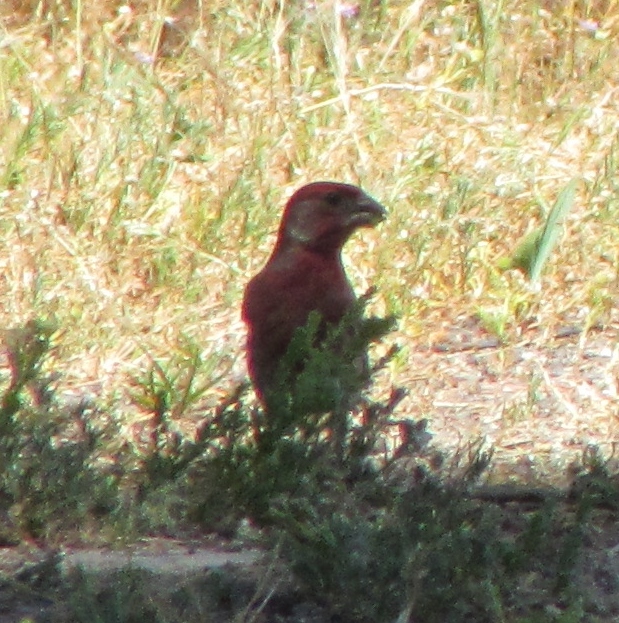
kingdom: Animalia
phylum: Chordata
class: Aves
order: Passeriformes
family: Fringillidae
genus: Haemorhous
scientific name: Haemorhous mexicanus
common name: House finch
